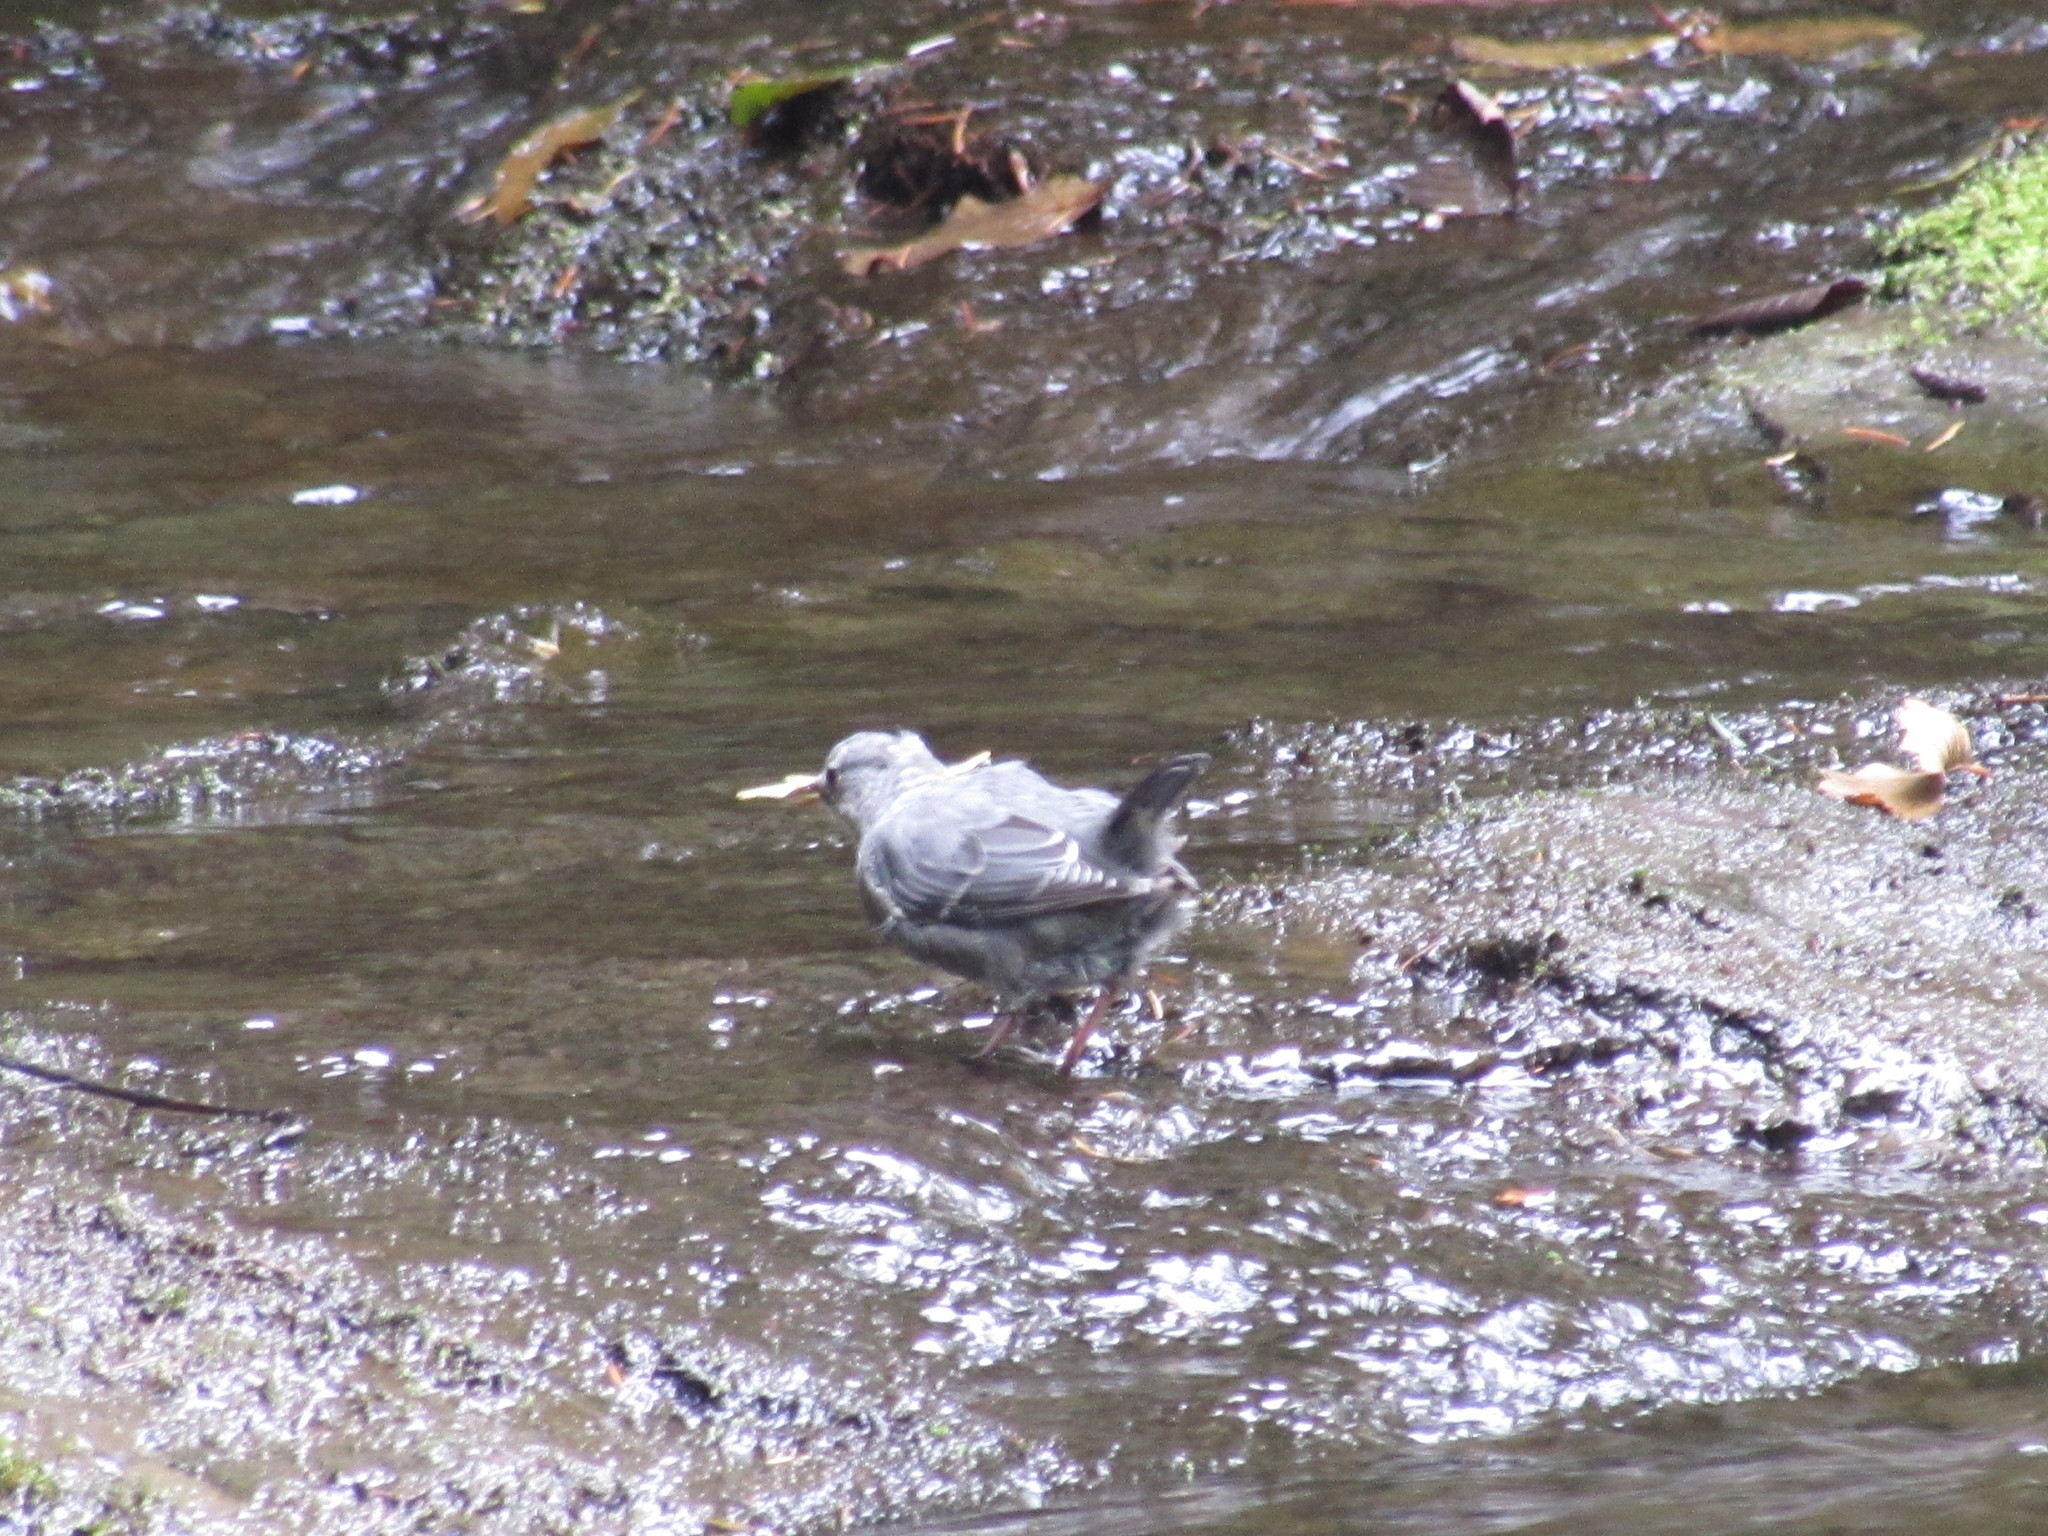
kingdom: Animalia
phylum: Chordata
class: Aves
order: Passeriformes
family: Cinclidae
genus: Cinclus
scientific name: Cinclus mexicanus
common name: American dipper
